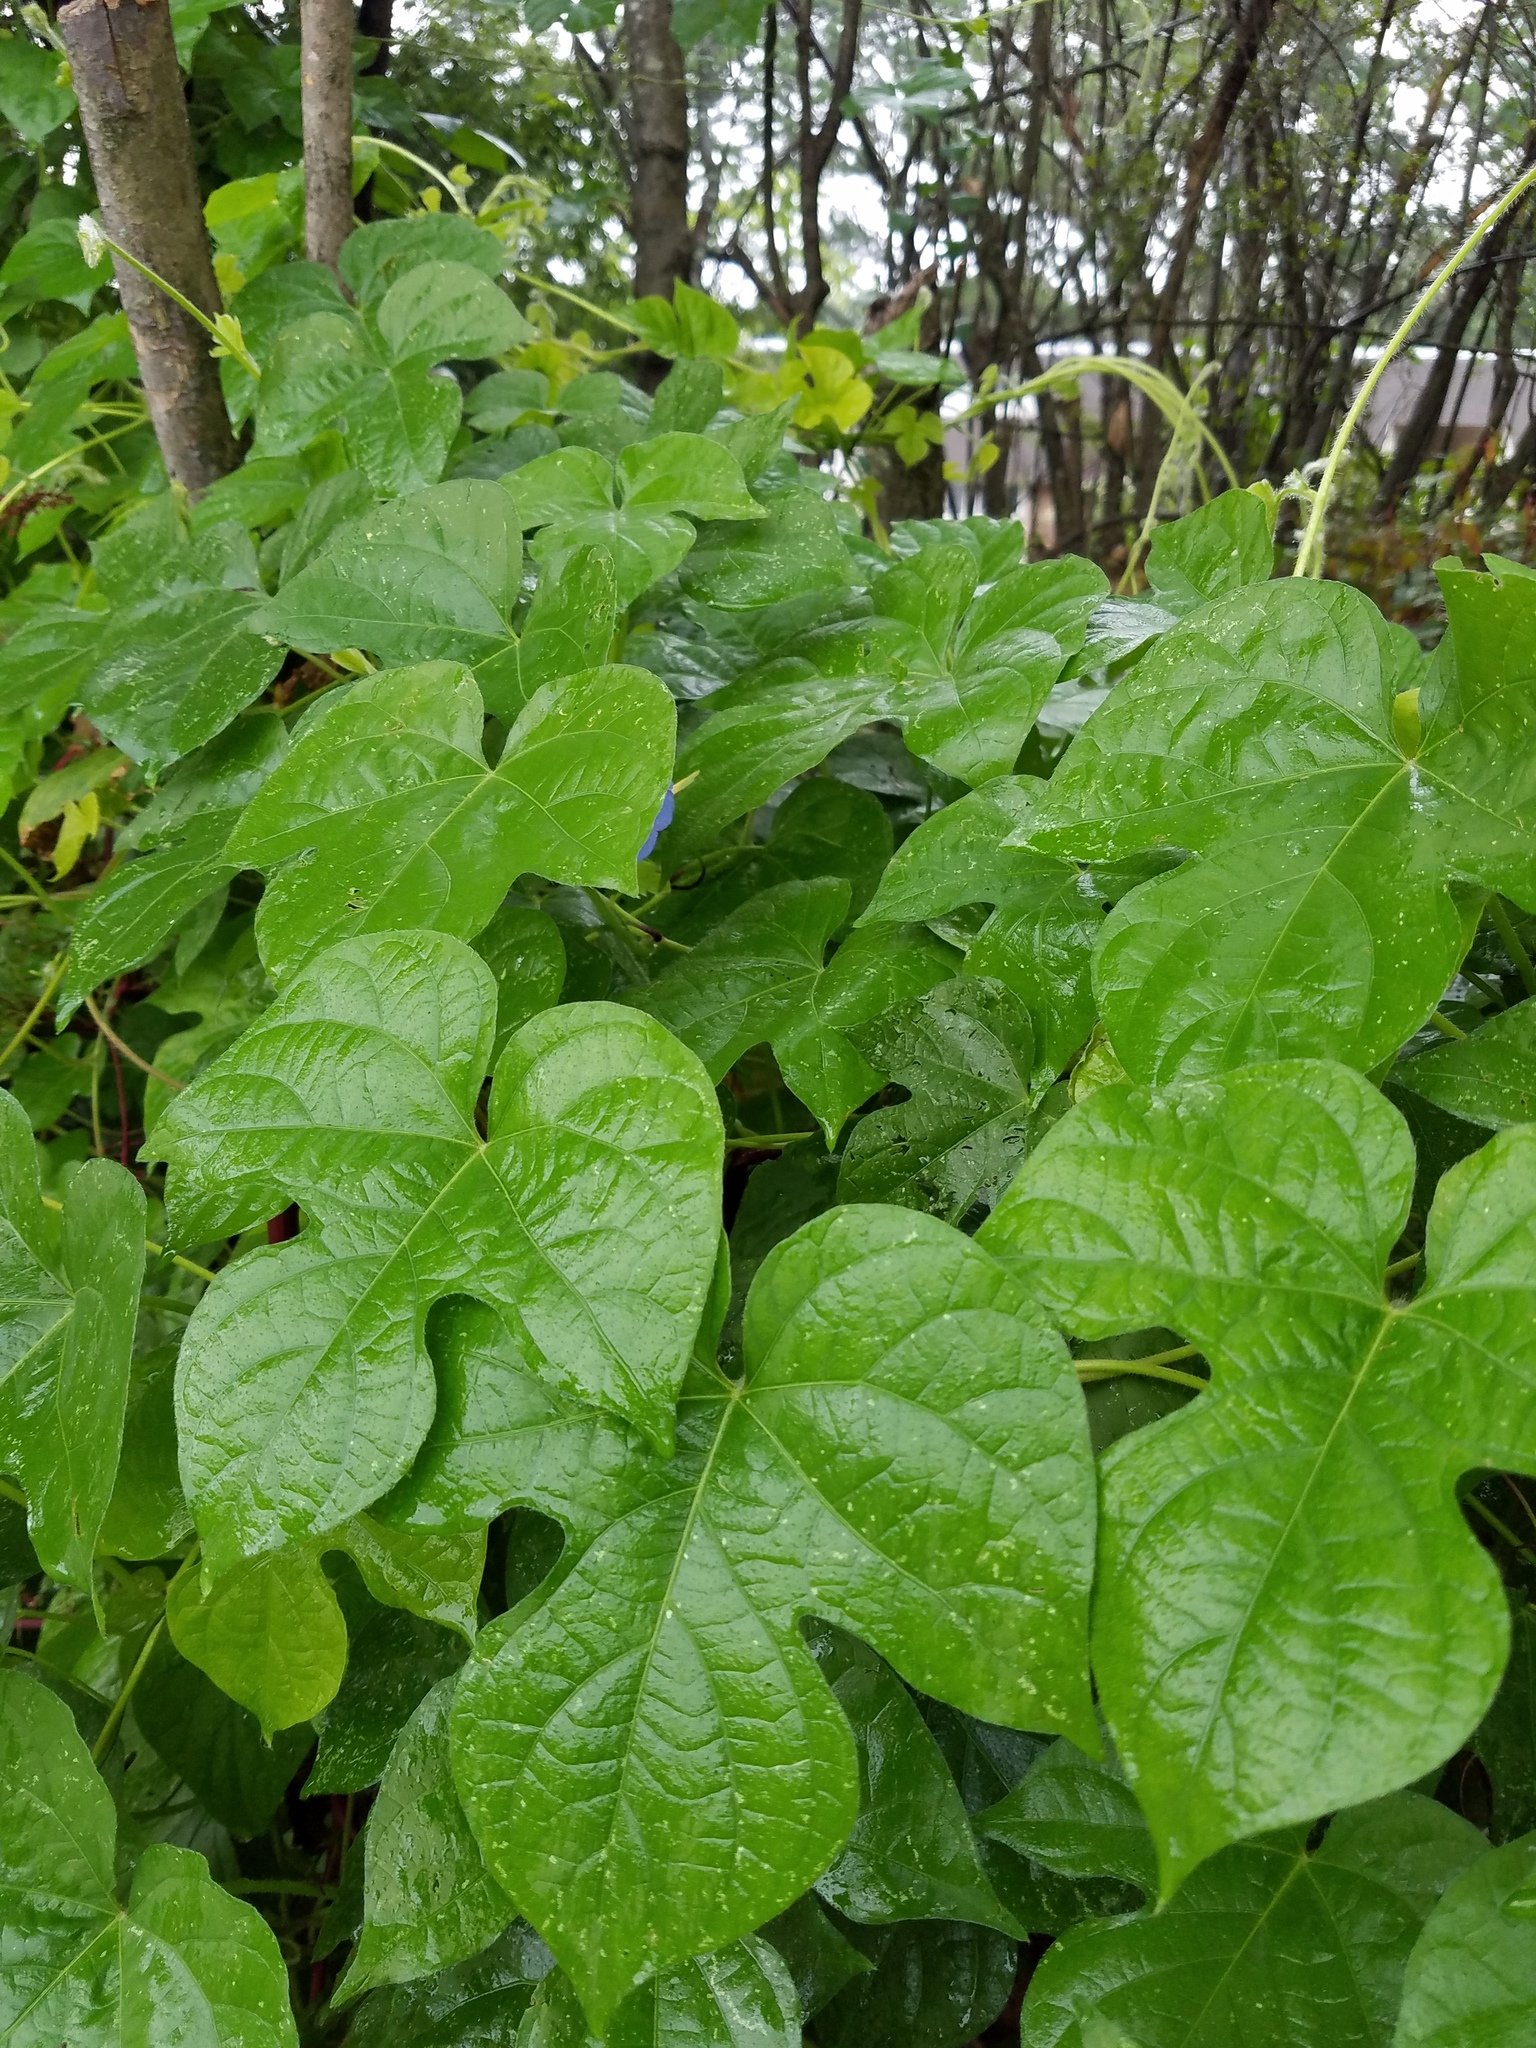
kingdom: Plantae
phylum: Tracheophyta
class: Magnoliopsida
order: Solanales
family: Convolvulaceae
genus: Ipomoea
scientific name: Ipomoea hederacea
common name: Ivy-leaved morning-glory
